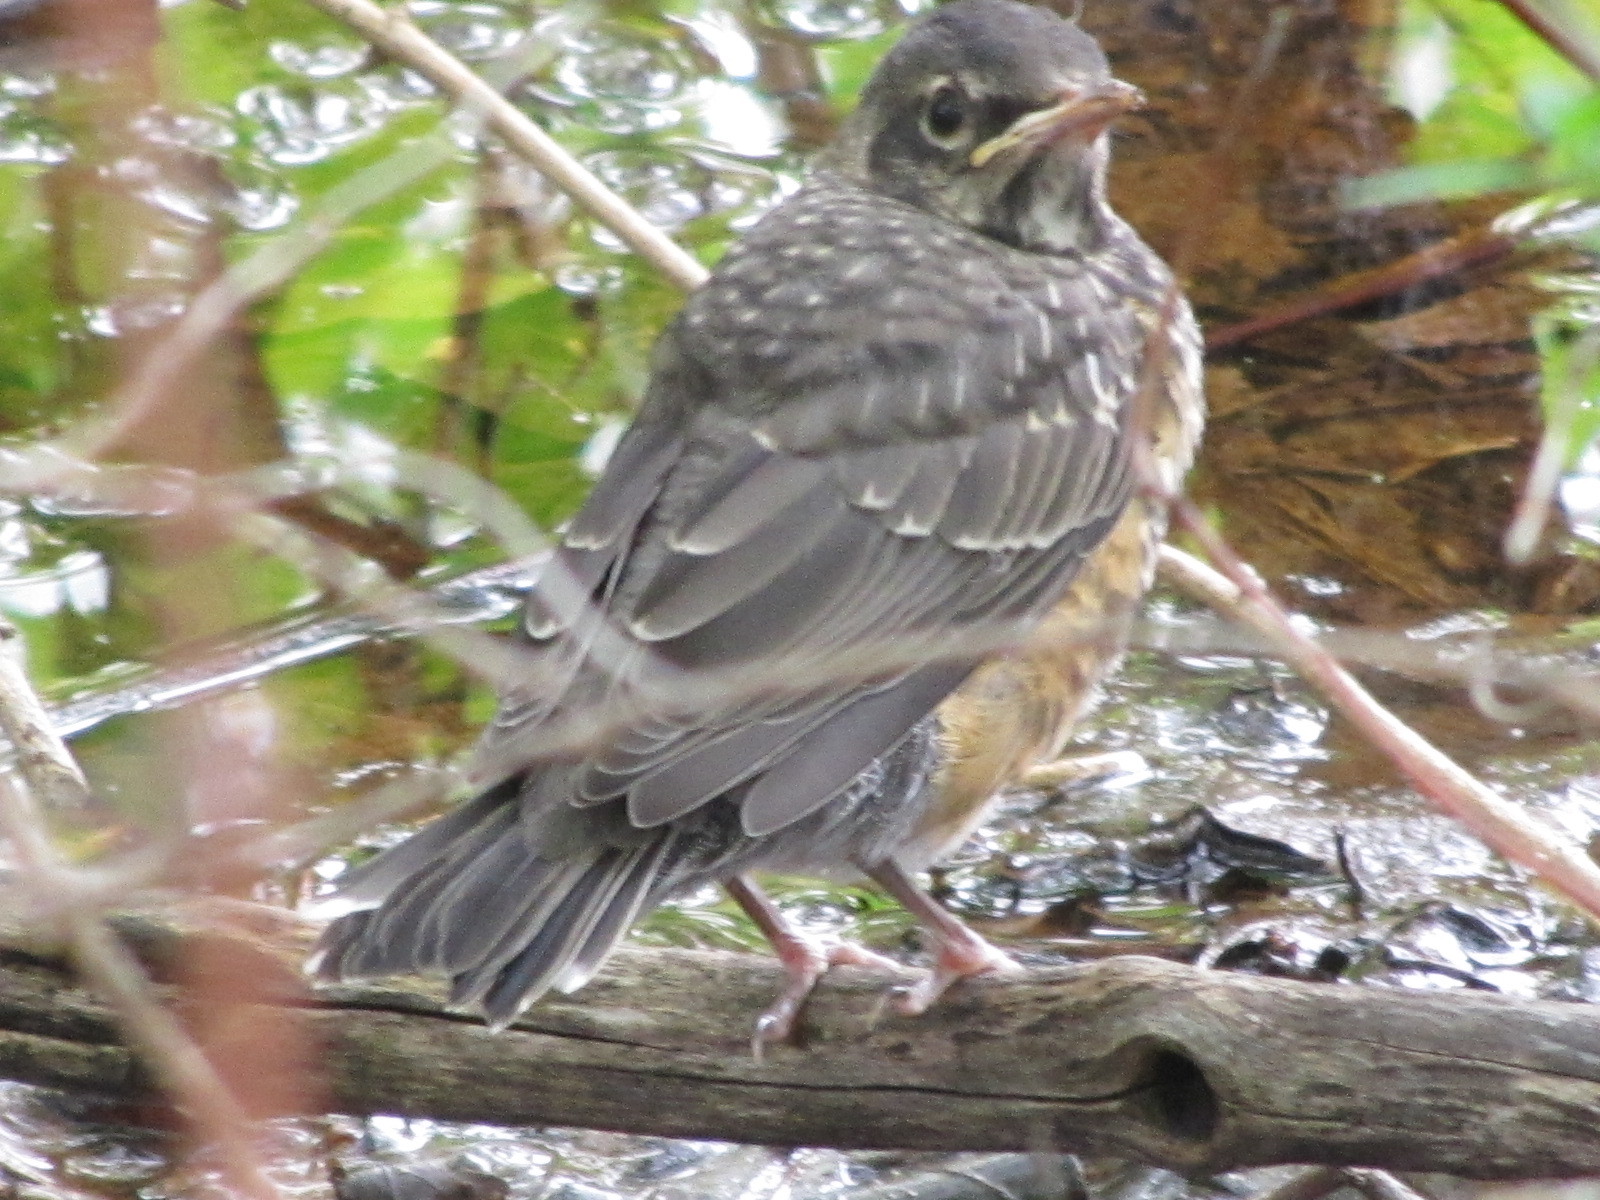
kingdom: Animalia
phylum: Chordata
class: Aves
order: Passeriformes
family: Turdidae
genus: Turdus
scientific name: Turdus migratorius
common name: American robin
